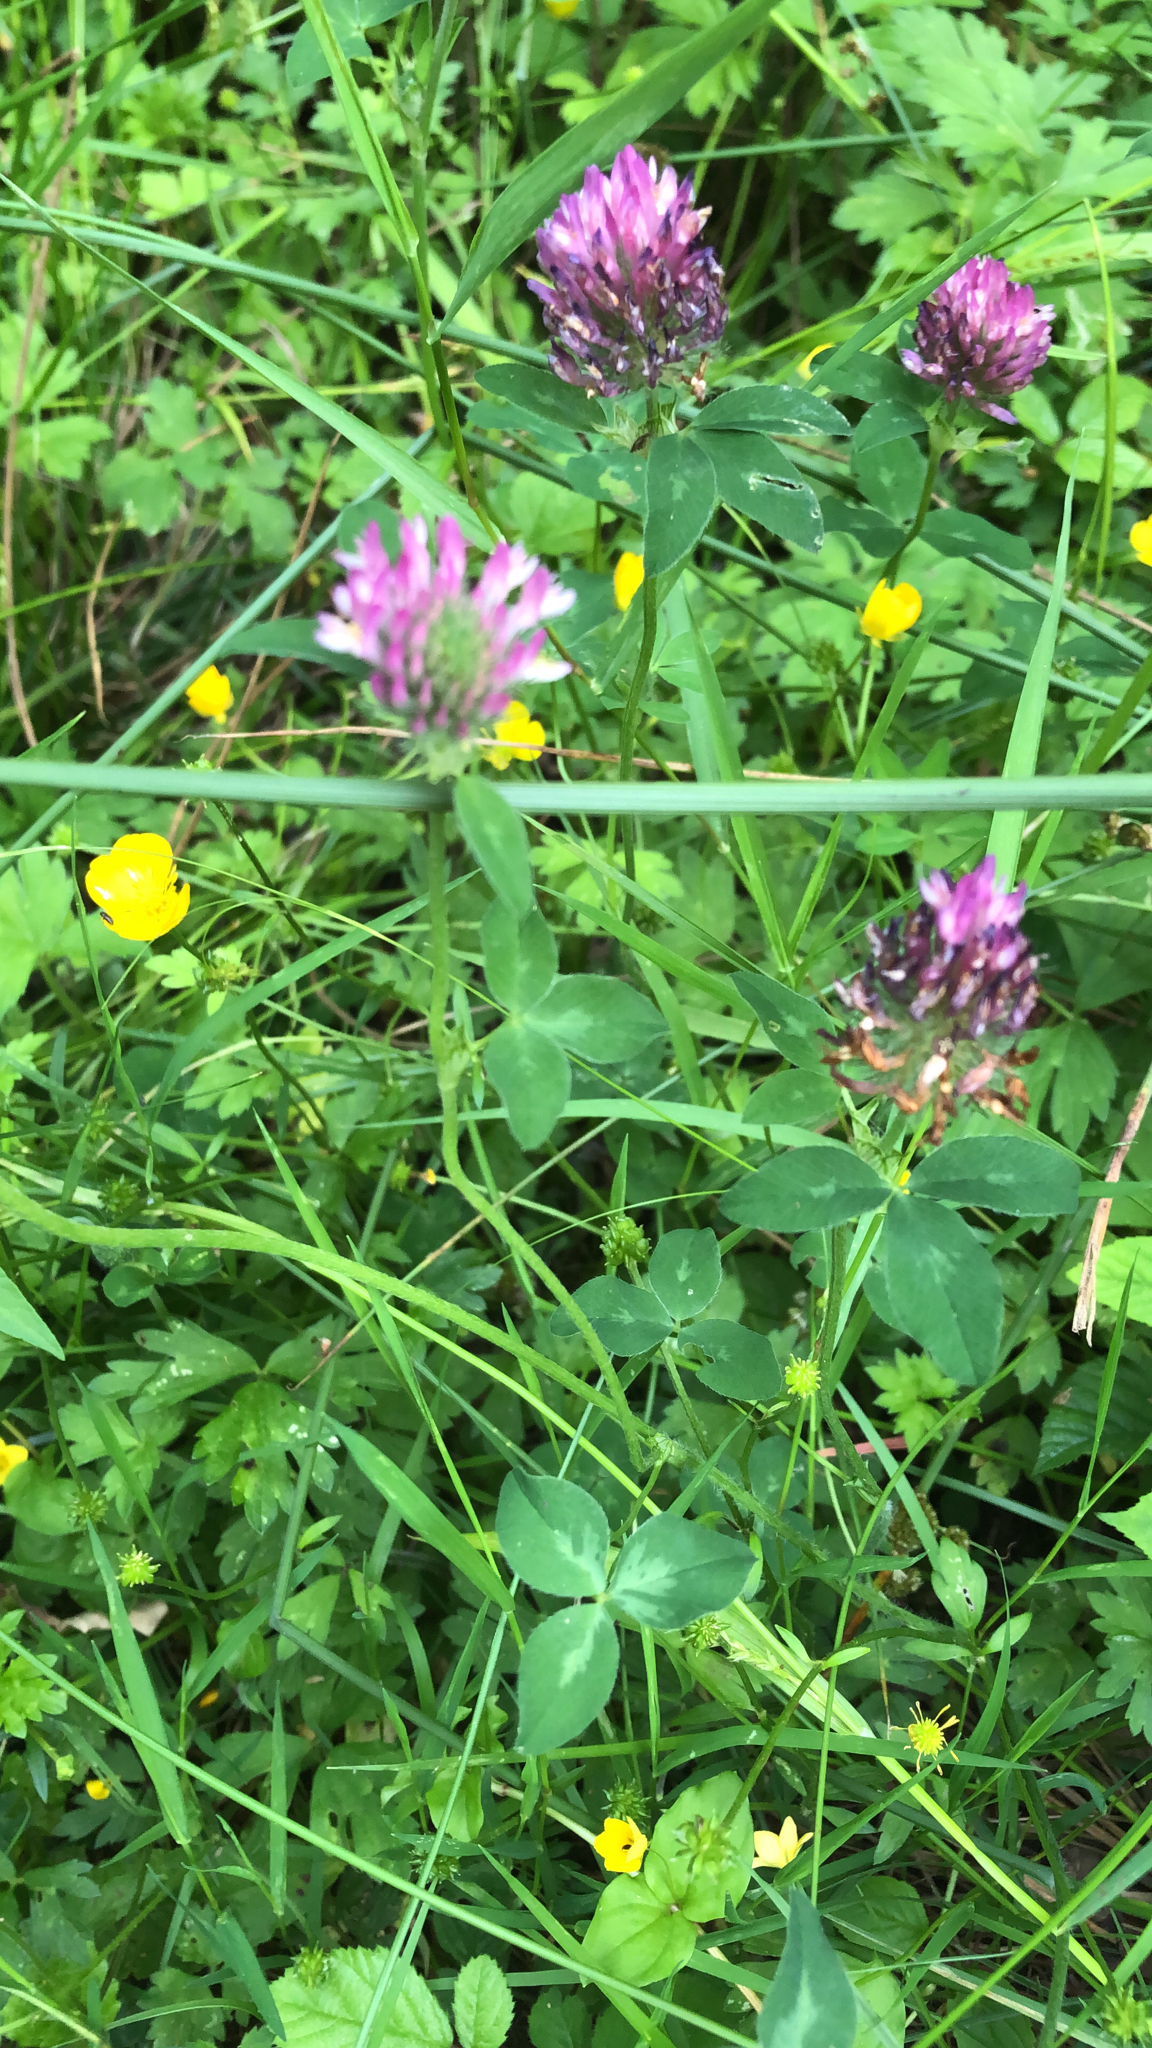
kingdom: Plantae
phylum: Tracheophyta
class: Magnoliopsida
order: Fabales
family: Fabaceae
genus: Trifolium
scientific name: Trifolium pratense
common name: Red clover
